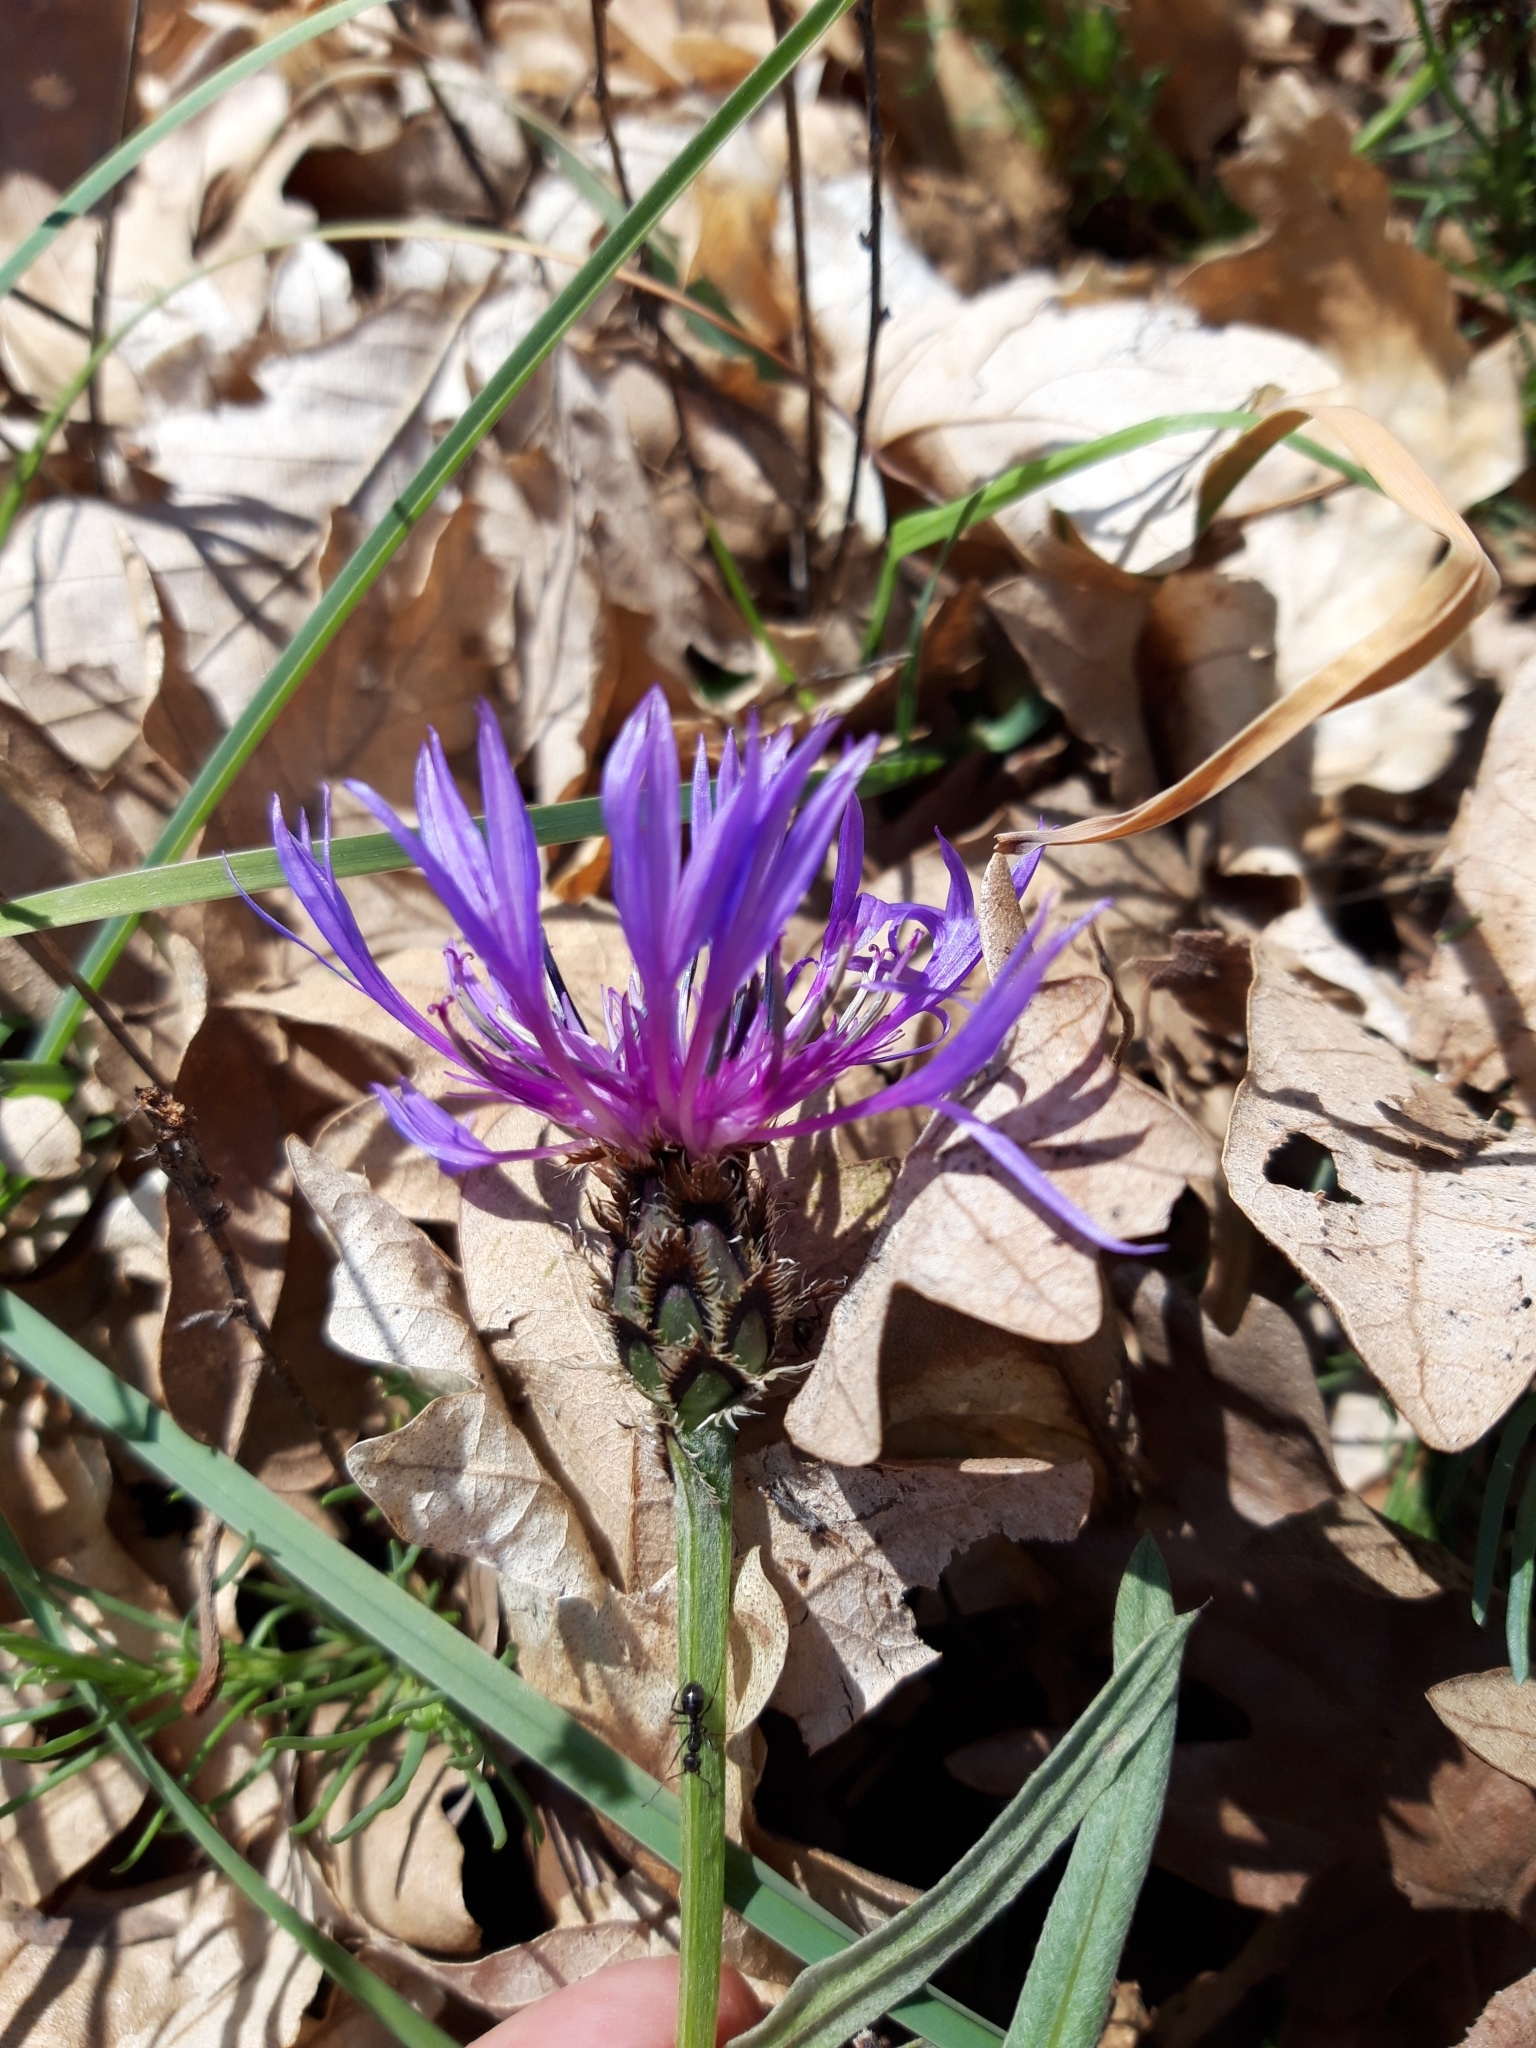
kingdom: Plantae
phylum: Tracheophyta
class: Magnoliopsida
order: Asterales
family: Asteraceae
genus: Centaurea
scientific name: Centaurea graminifolia
